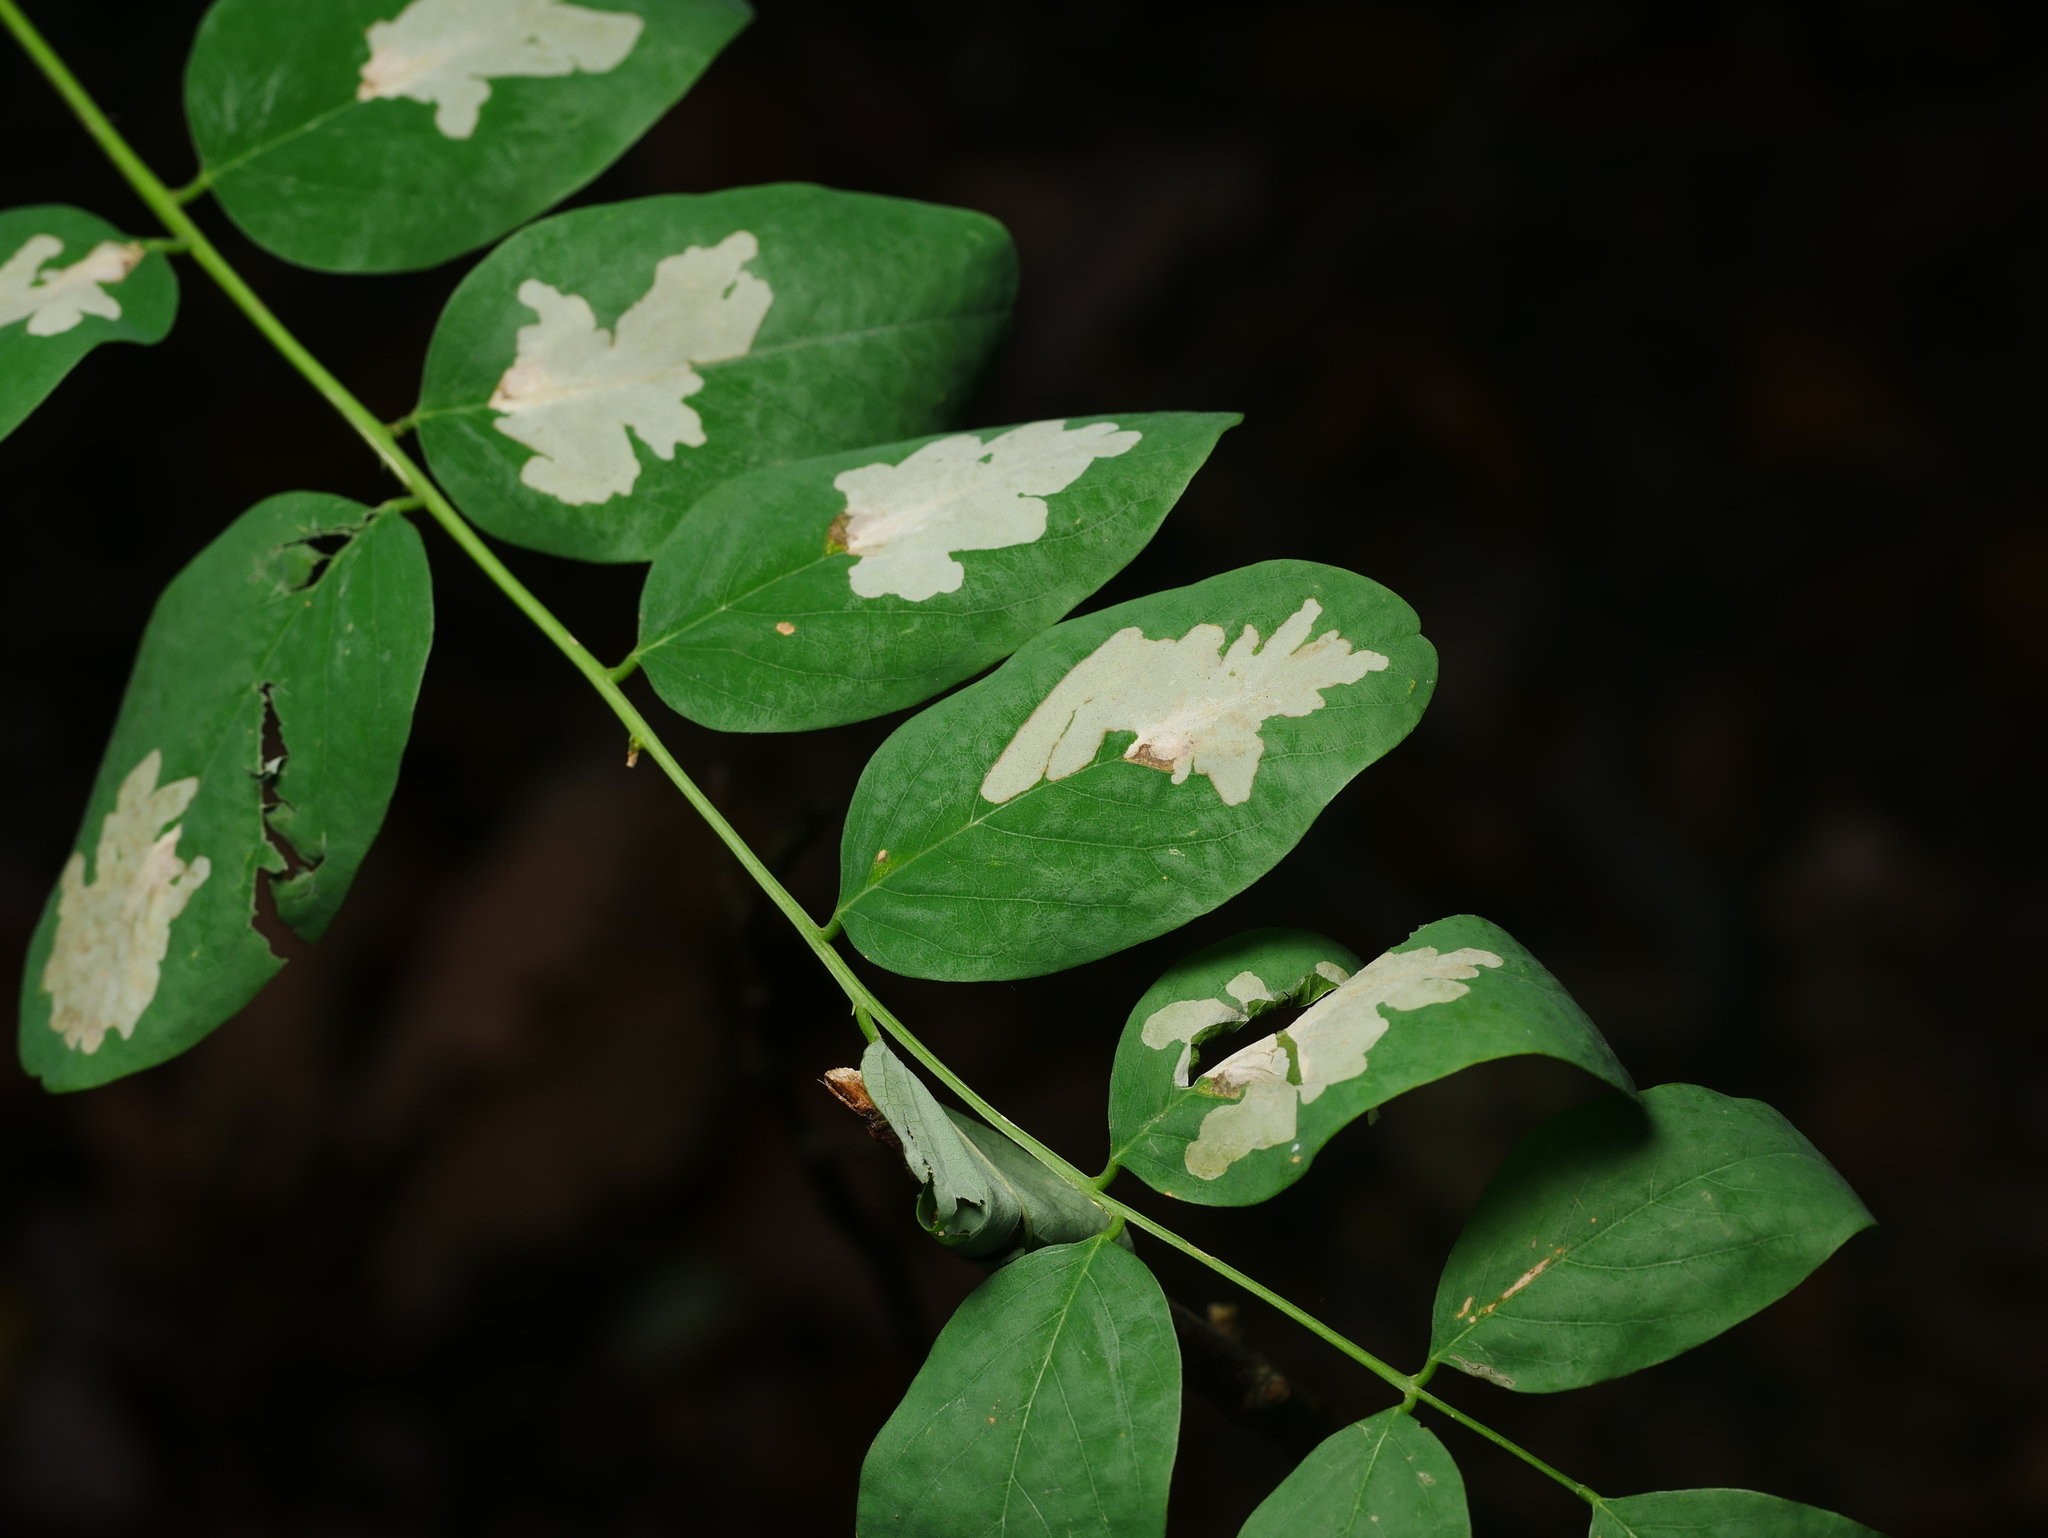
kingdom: Animalia
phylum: Arthropoda
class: Insecta
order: Lepidoptera
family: Gracillariidae
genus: Parectopa
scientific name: Parectopa robiniella
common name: Locust digitate leafminer
